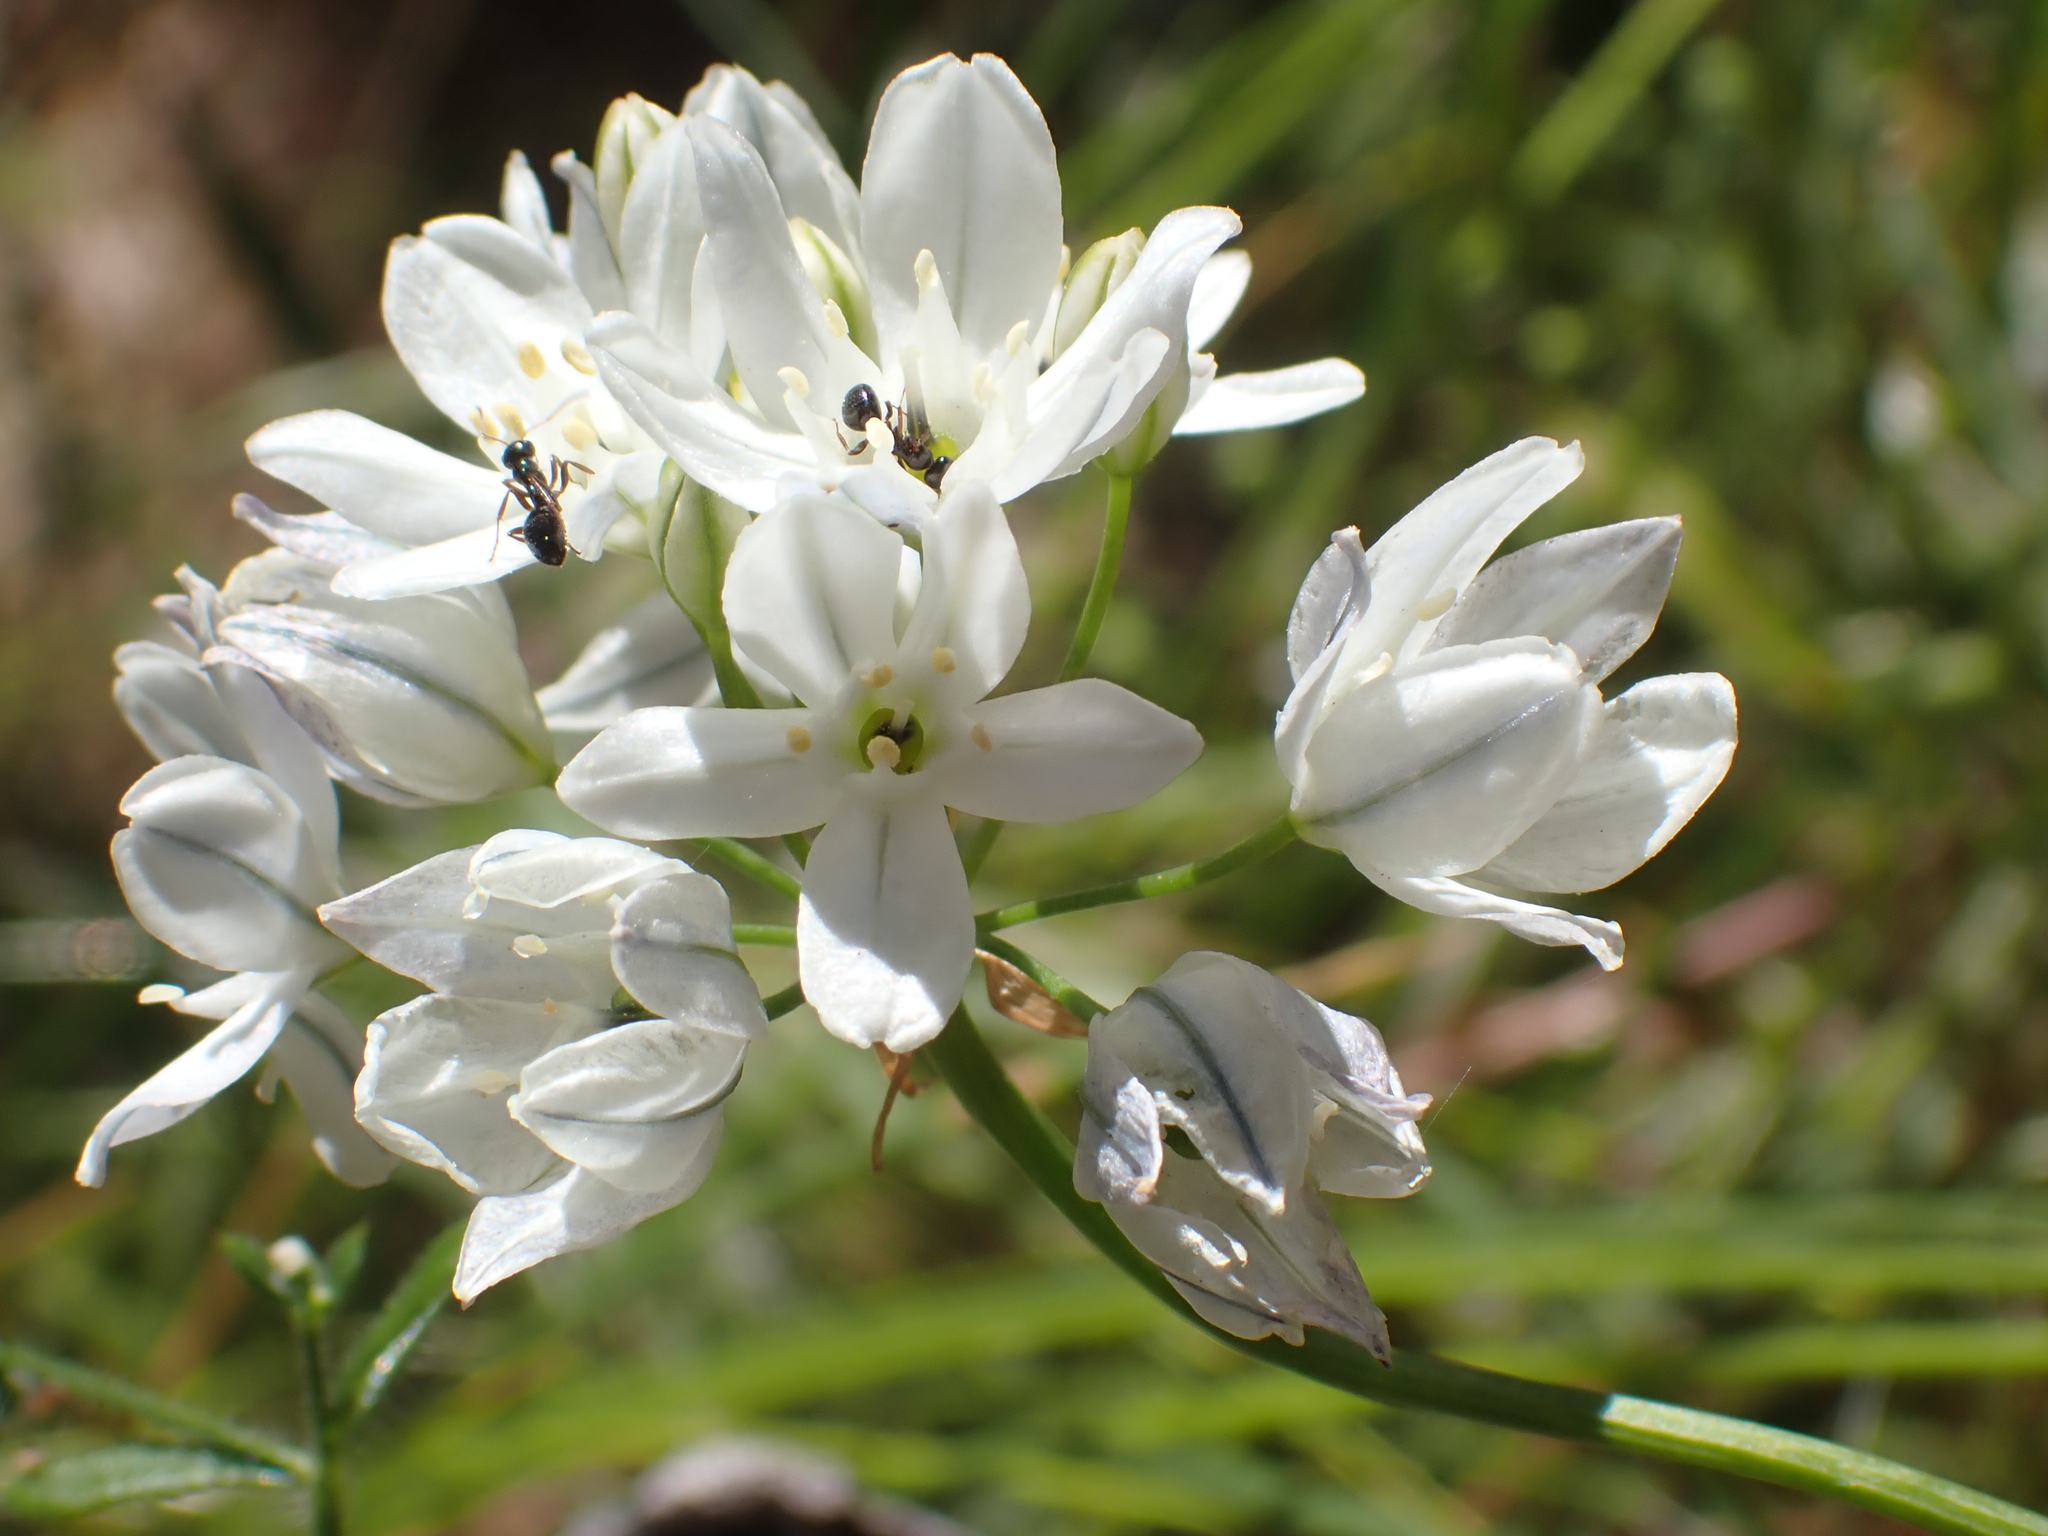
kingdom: Plantae
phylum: Tracheophyta
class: Liliopsida
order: Asparagales
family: Asparagaceae
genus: Triteleia
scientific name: Triteleia hyacinthina
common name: White brodiaea
